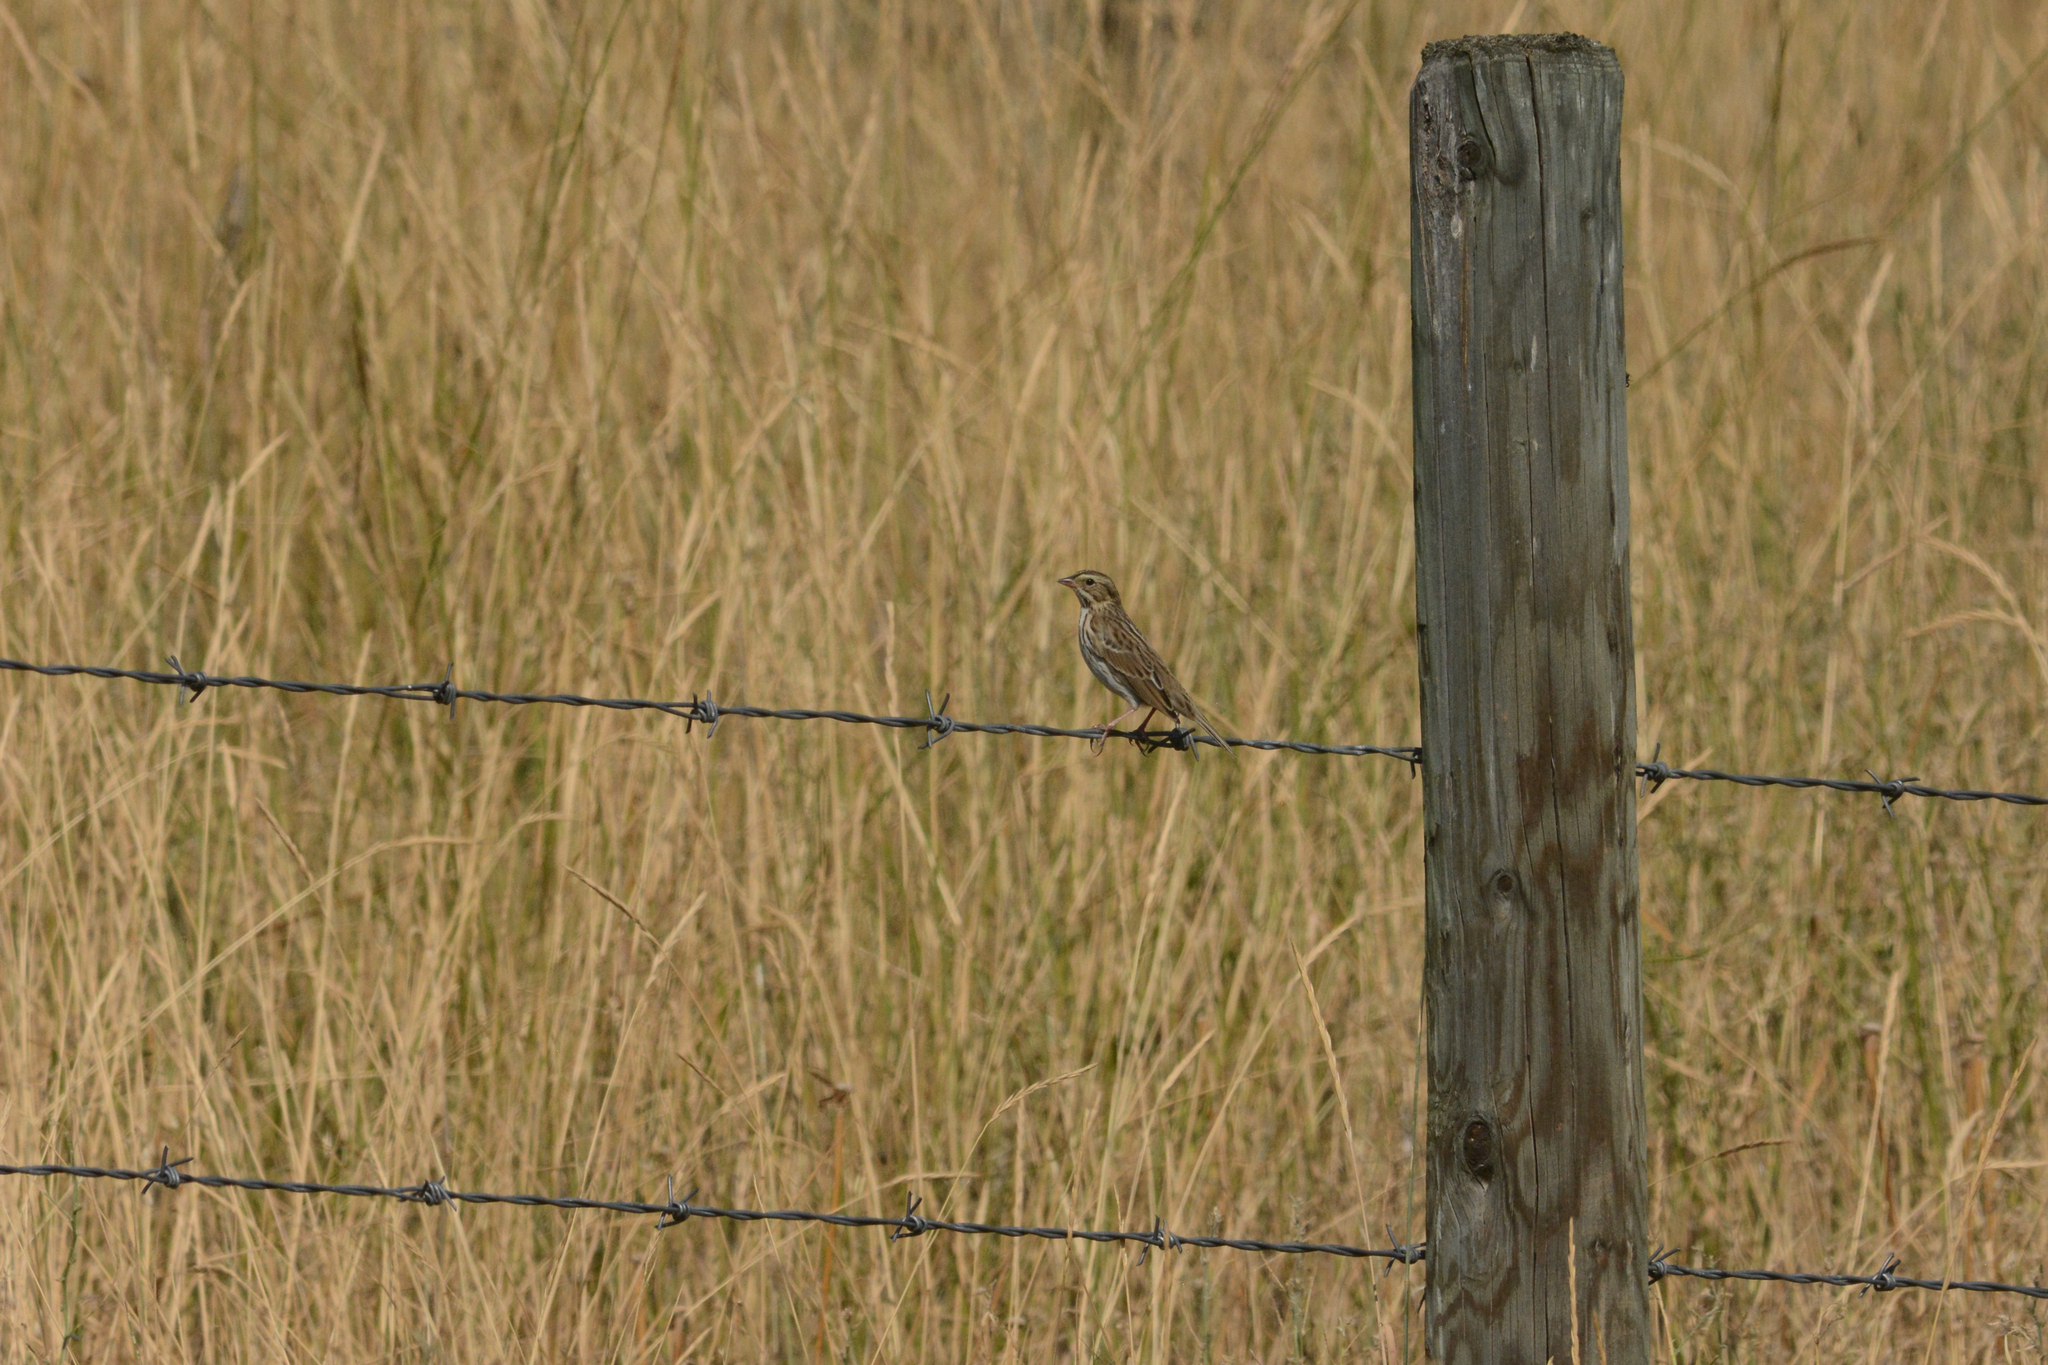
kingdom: Animalia
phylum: Chordata
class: Aves
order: Passeriformes
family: Passerellidae
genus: Passerculus
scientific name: Passerculus sandwichensis
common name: Savannah sparrow
